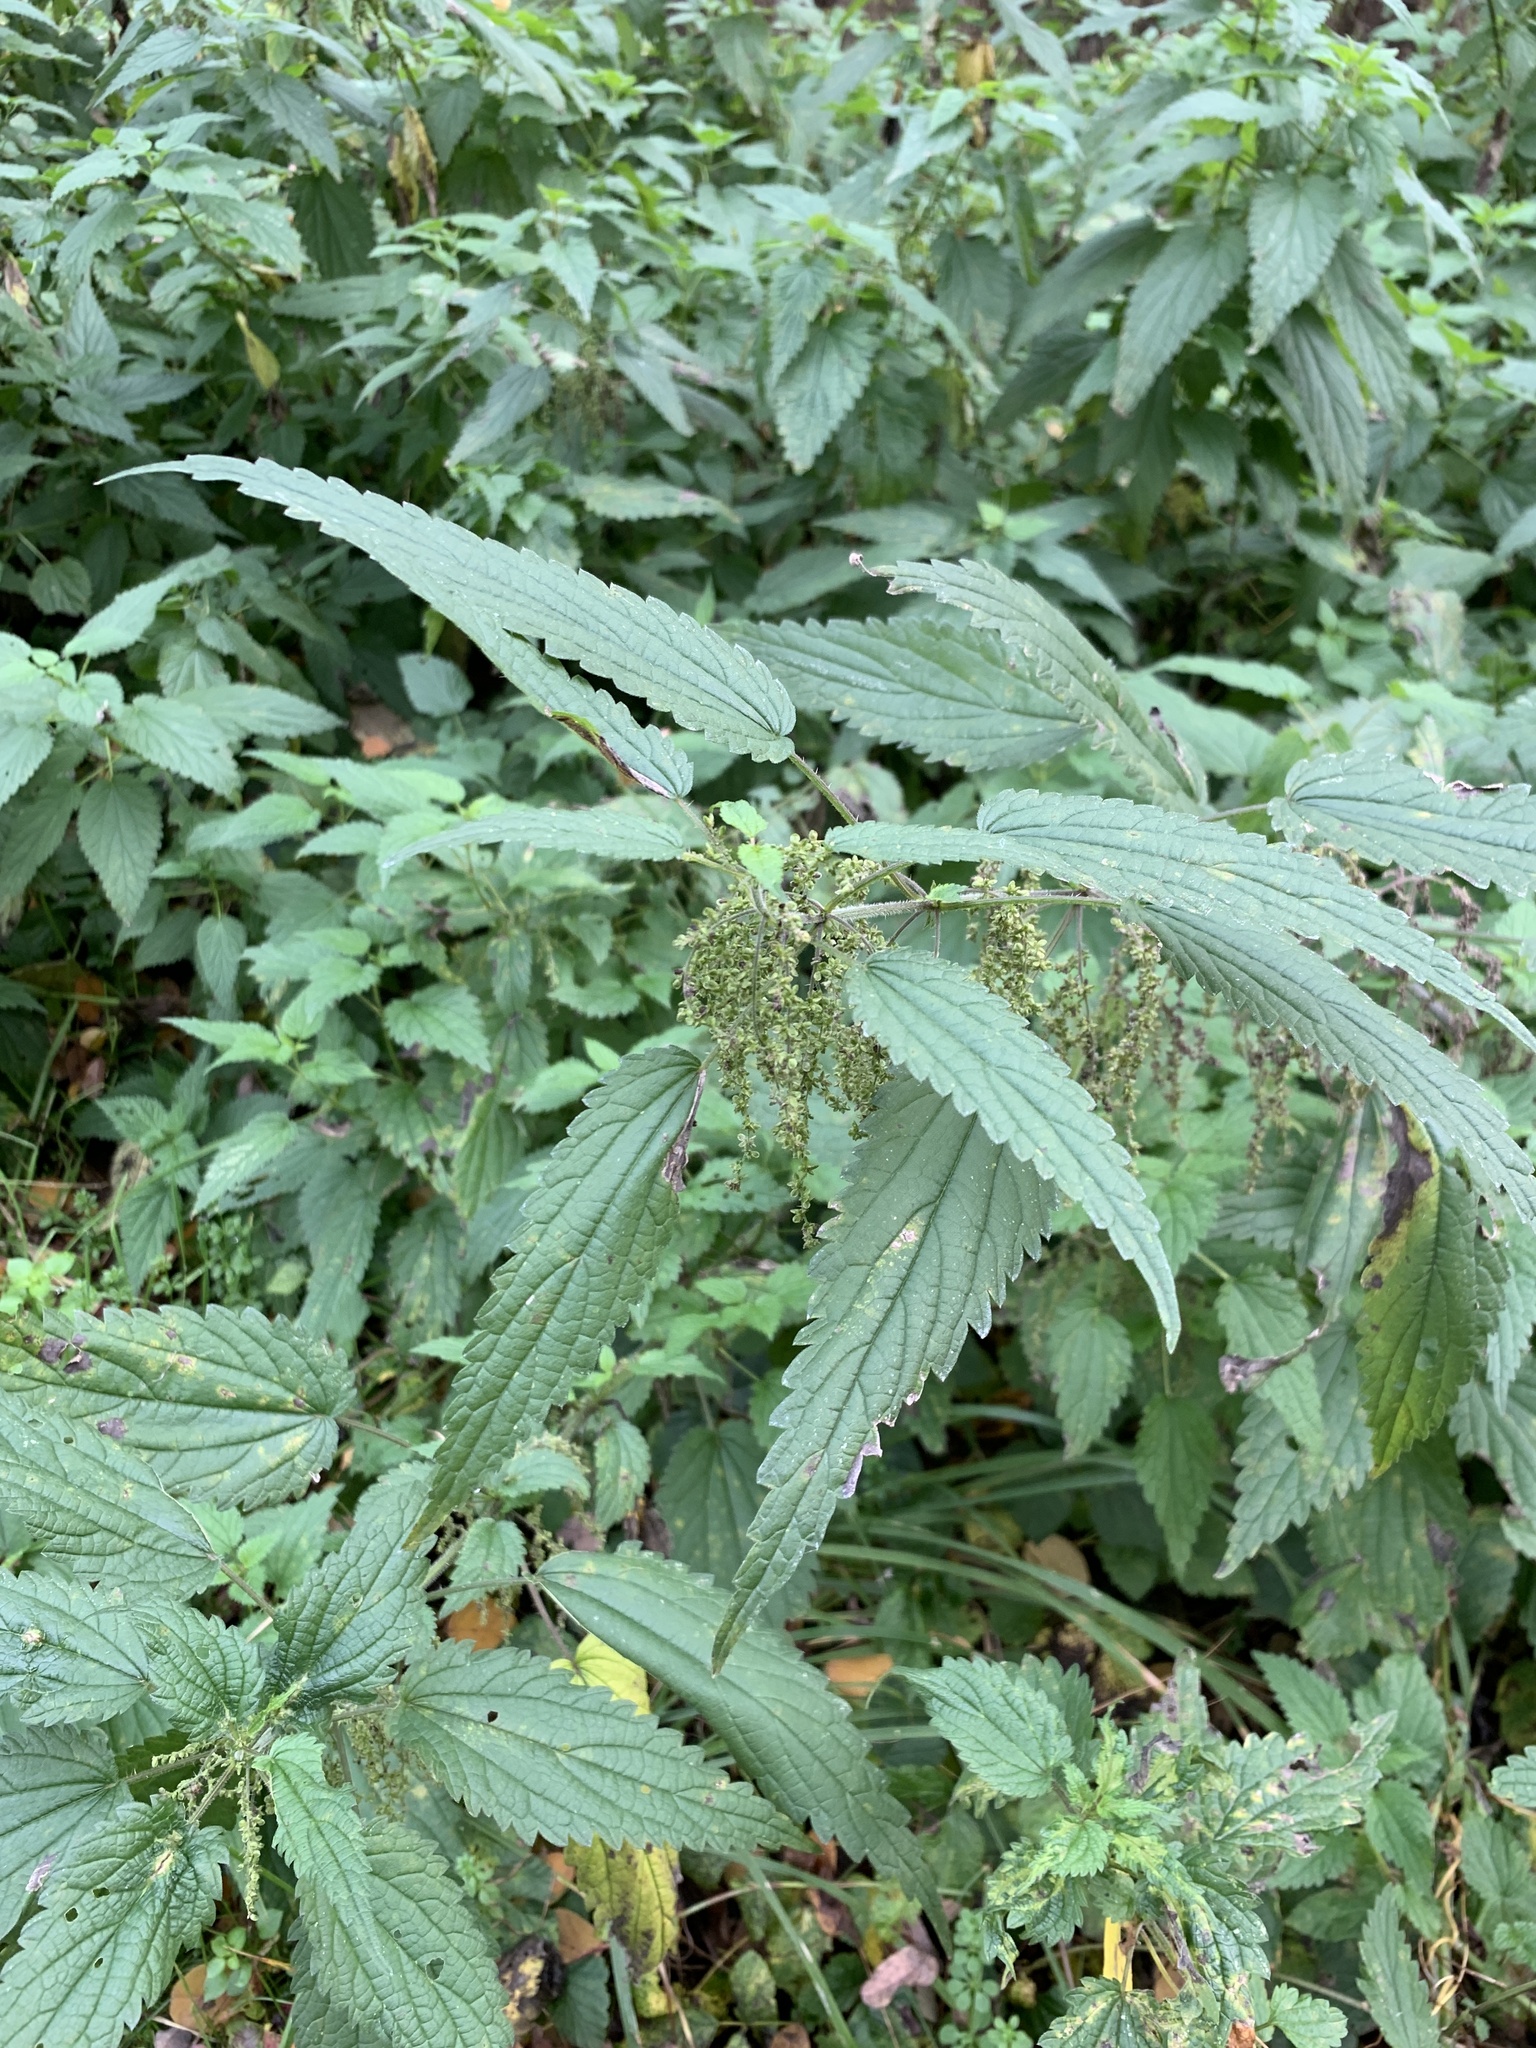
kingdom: Plantae
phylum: Tracheophyta
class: Magnoliopsida
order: Rosales
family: Urticaceae
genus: Urtica
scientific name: Urtica dioica
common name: Common nettle
